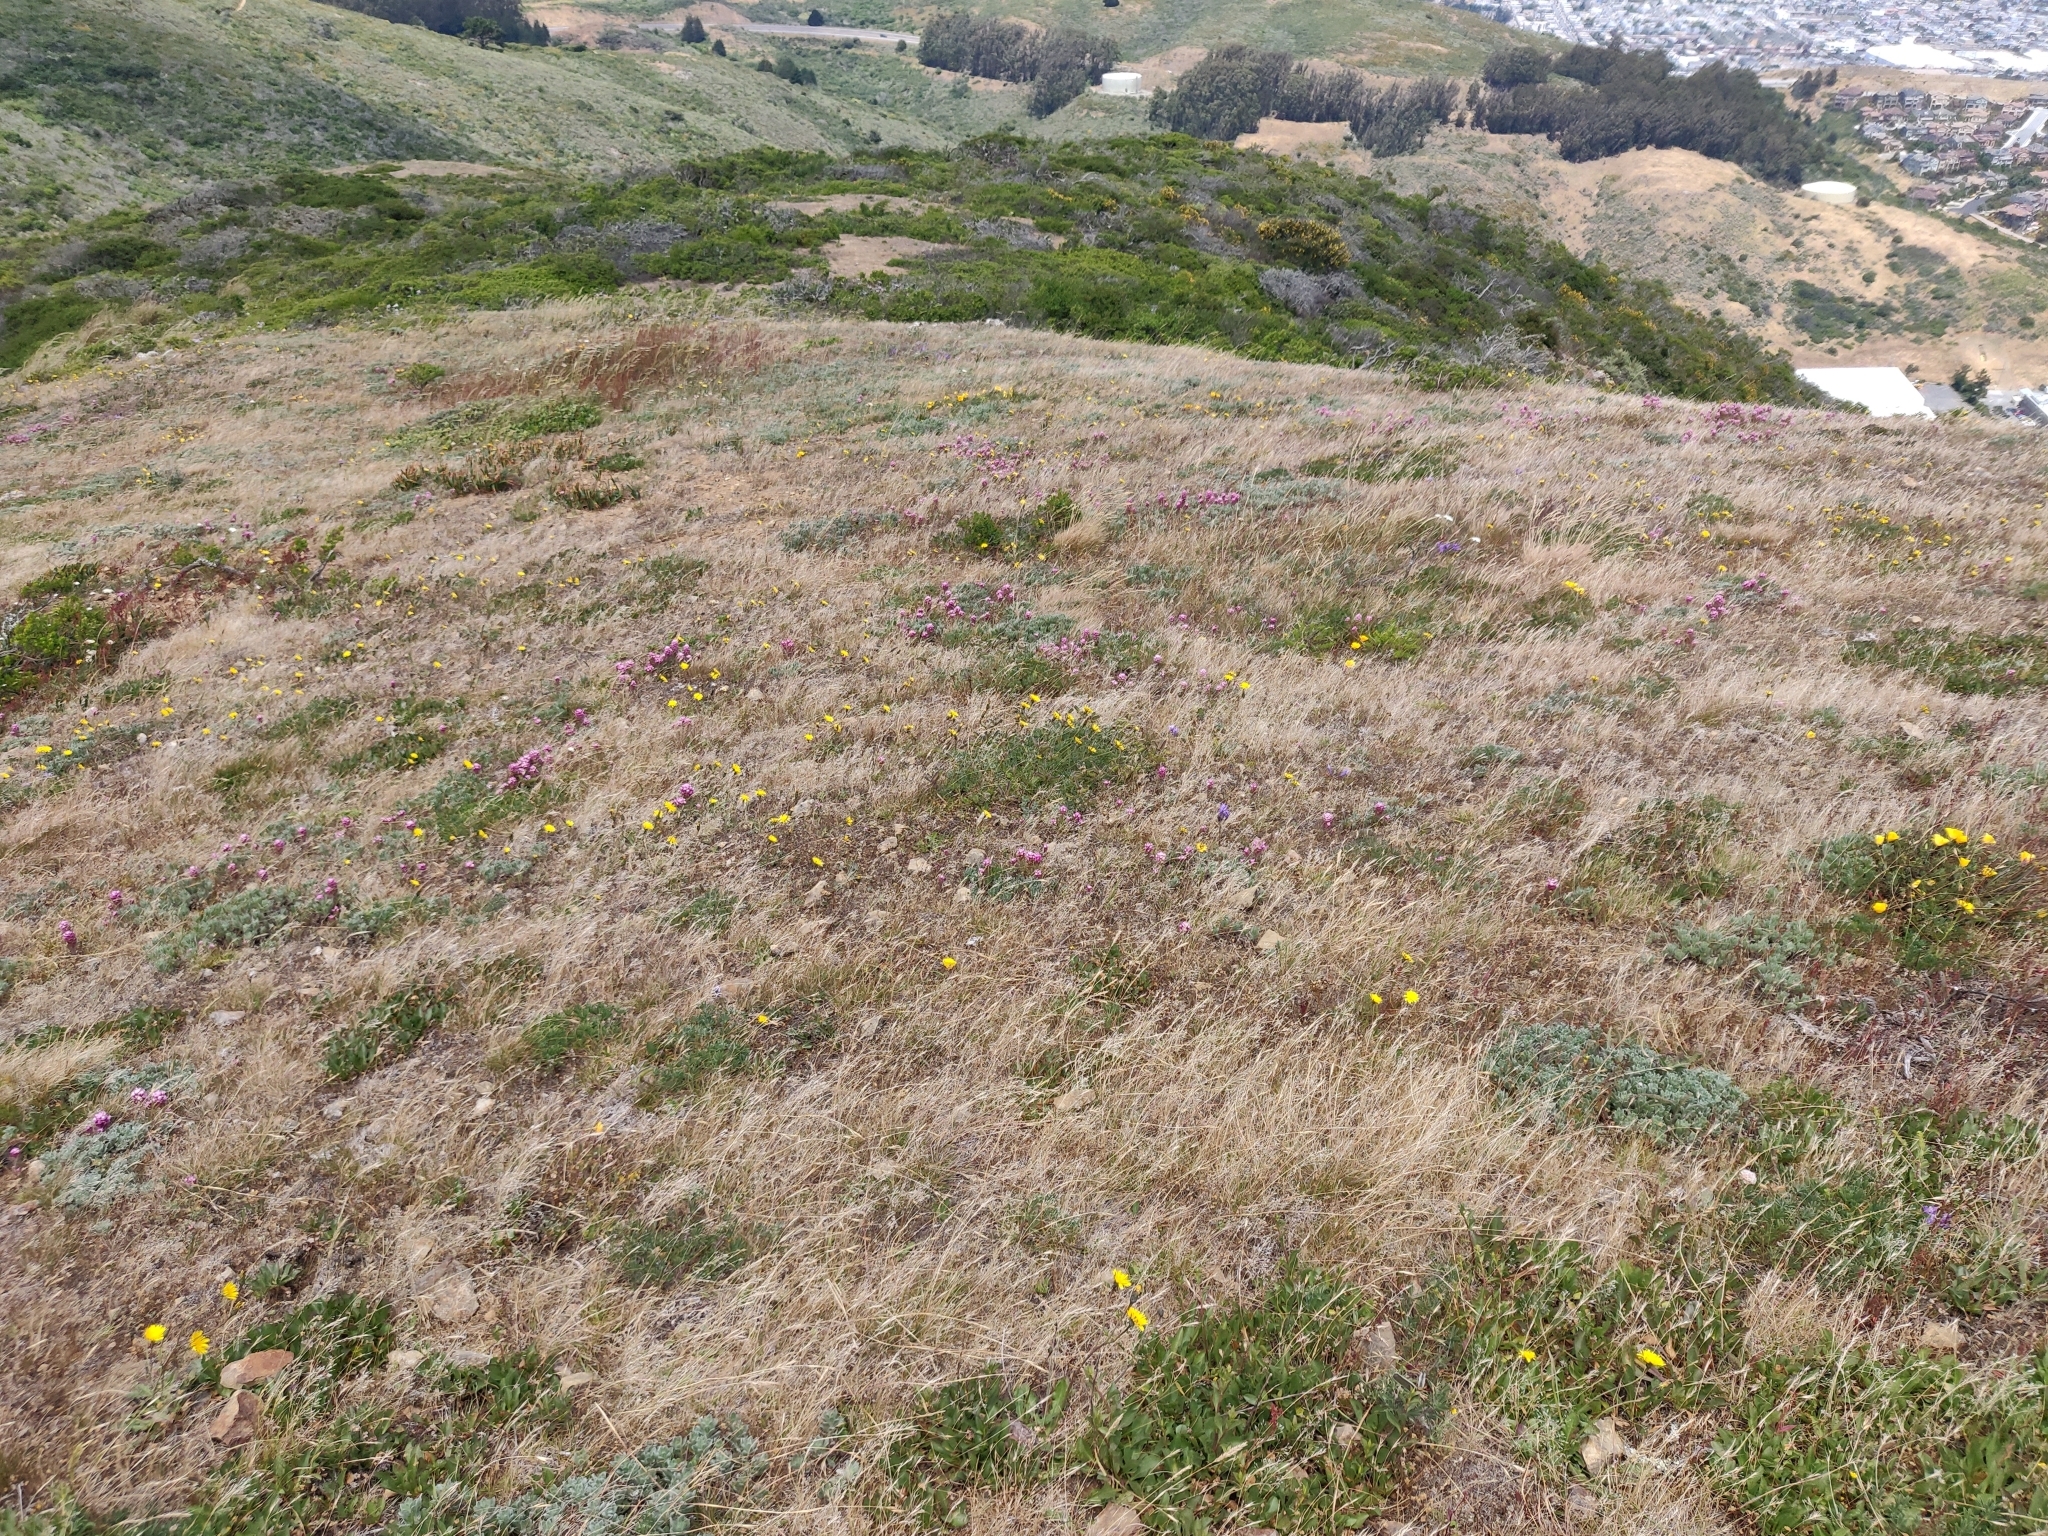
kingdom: Plantae
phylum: Tracheophyta
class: Magnoliopsida
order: Lamiales
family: Orobanchaceae
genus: Castilleja
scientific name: Castilleja exserta
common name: Purple owl-clover
